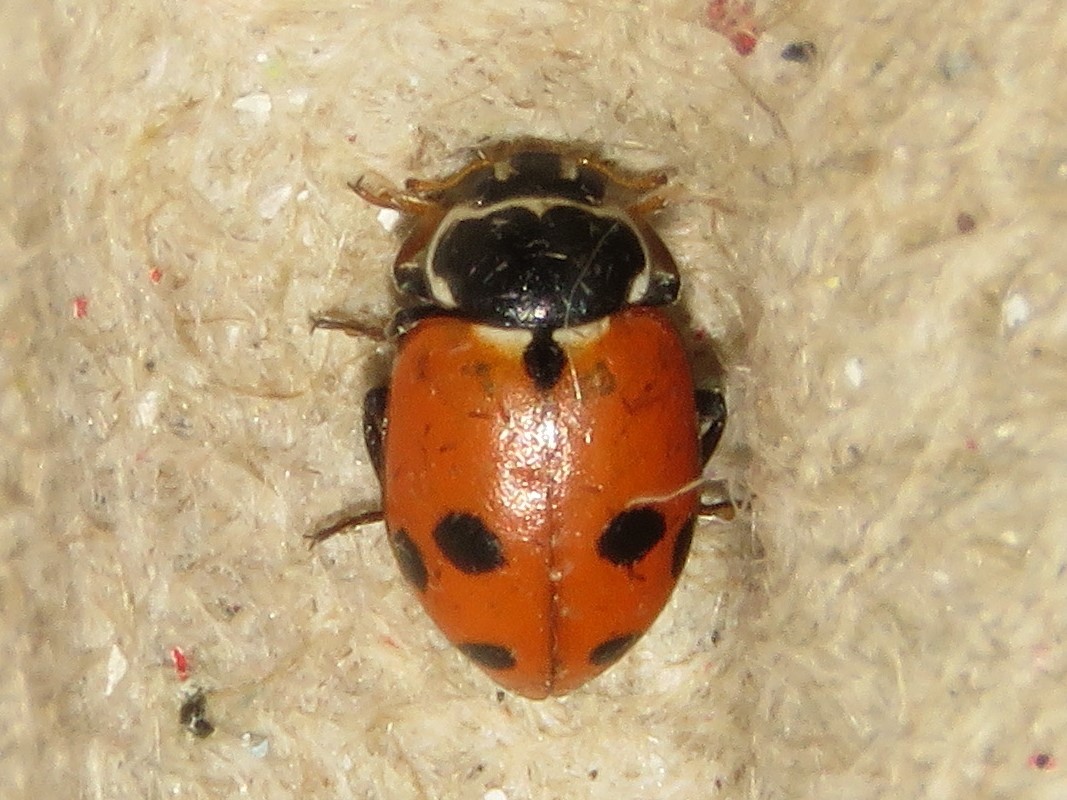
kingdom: Animalia
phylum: Arthropoda
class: Insecta
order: Coleoptera
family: Coccinellidae
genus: Hippodamia
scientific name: Hippodamia variegata
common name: Ladybird beetle
